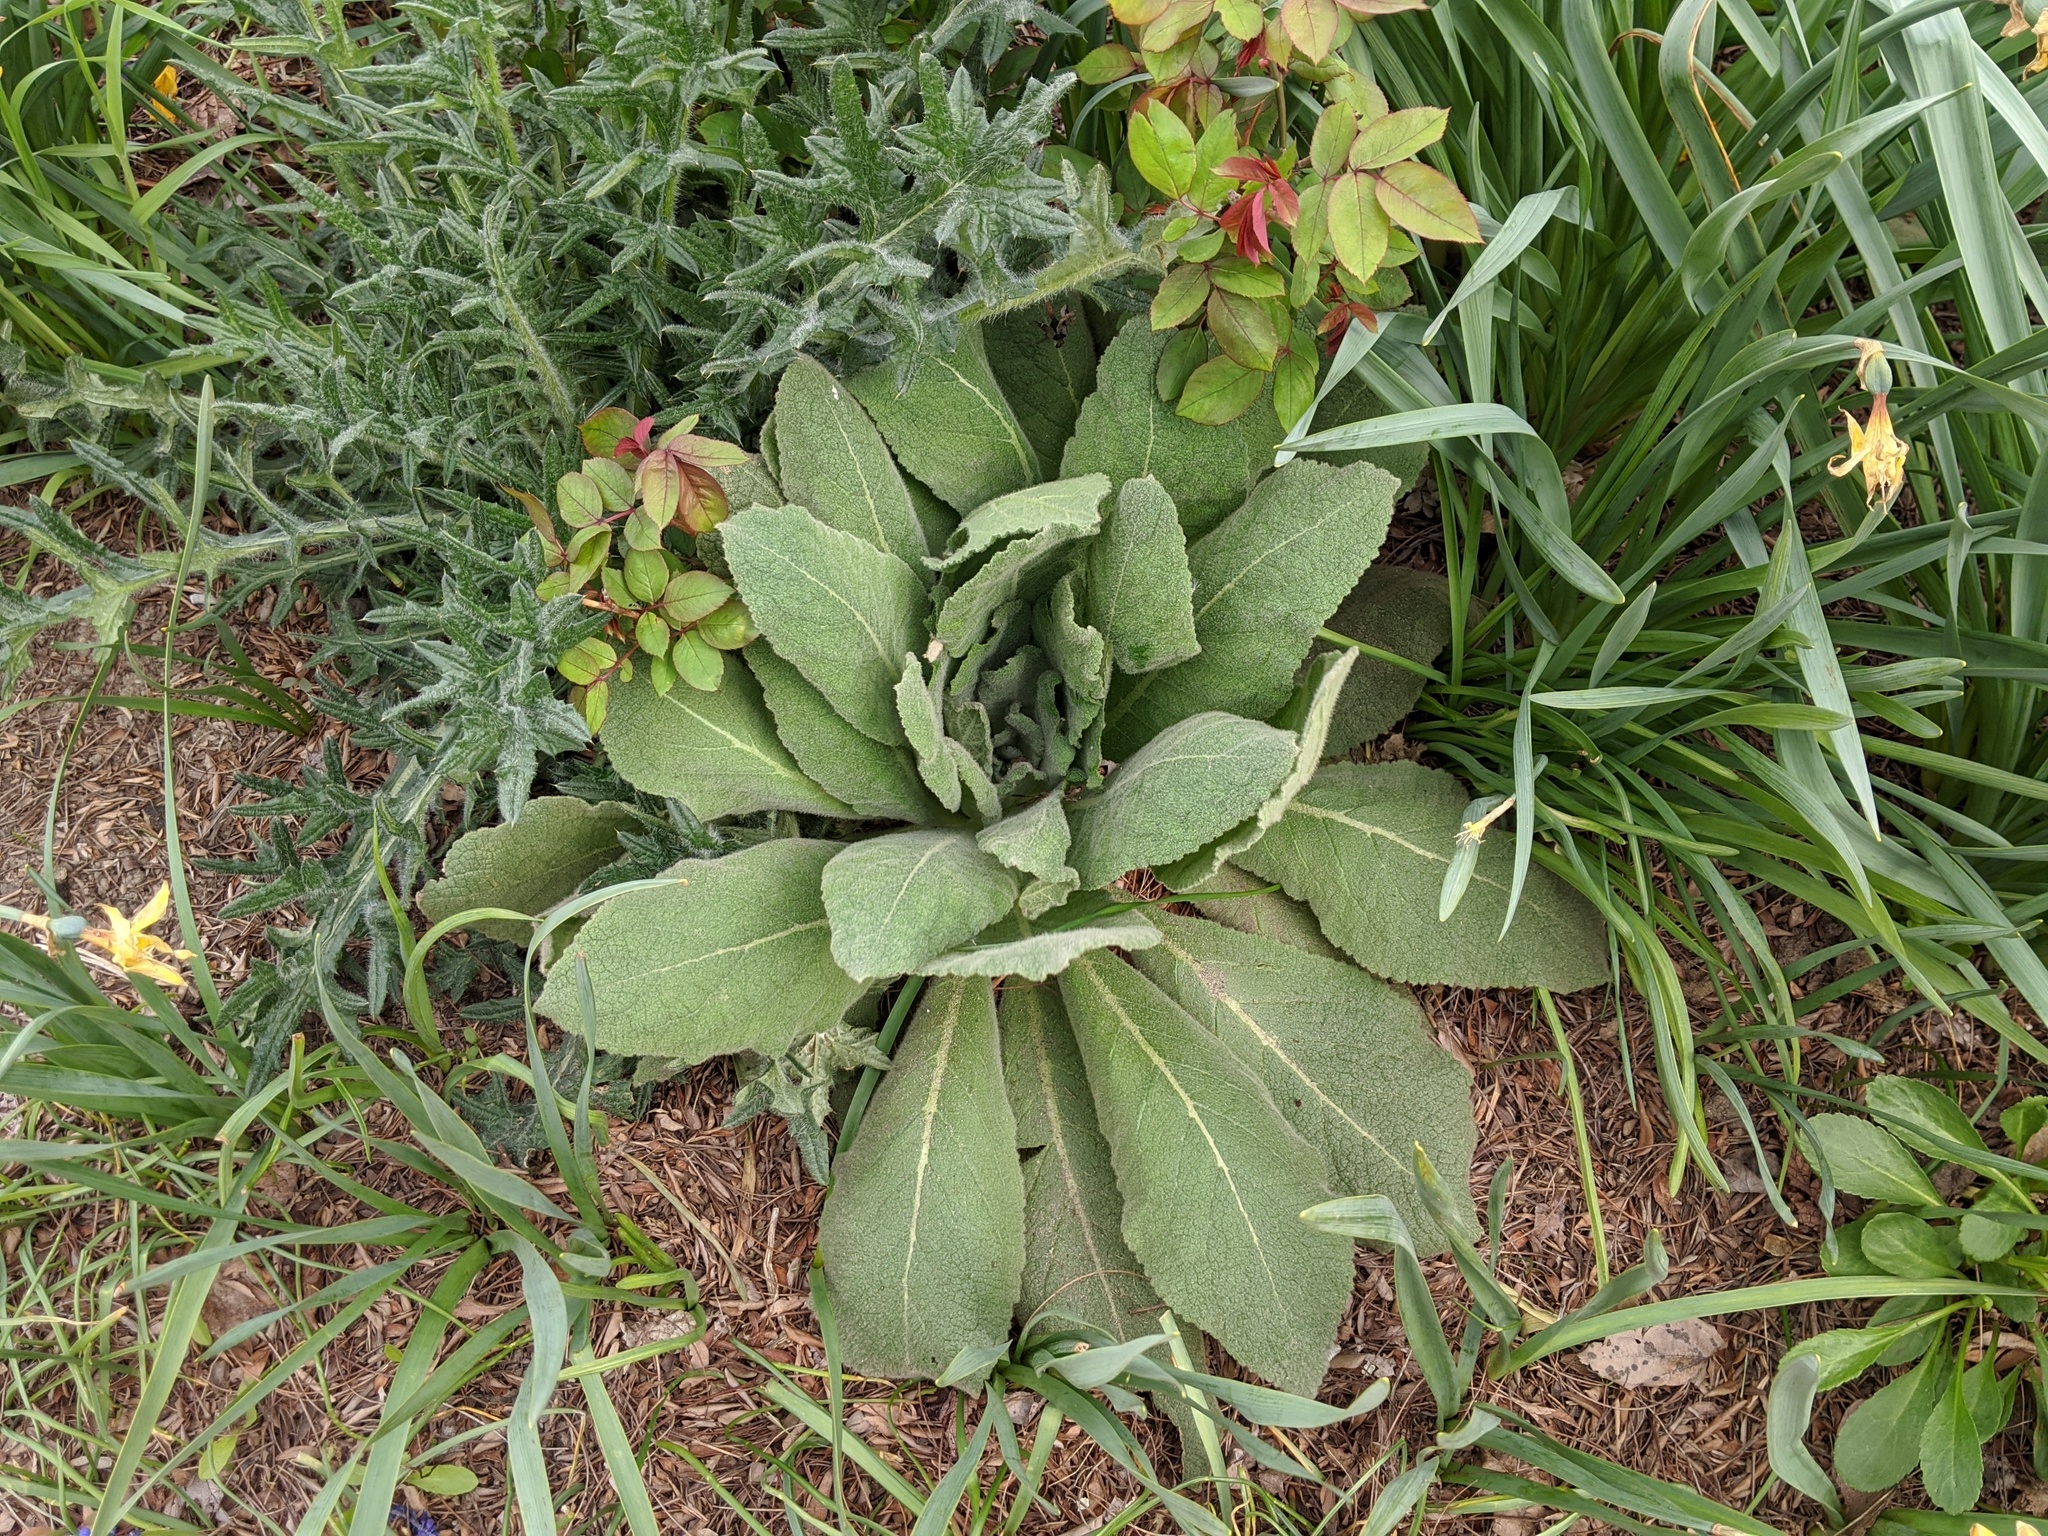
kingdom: Plantae
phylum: Tracheophyta
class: Magnoliopsida
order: Lamiales
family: Scrophulariaceae
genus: Verbascum
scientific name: Verbascum thapsus
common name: Common mullein
